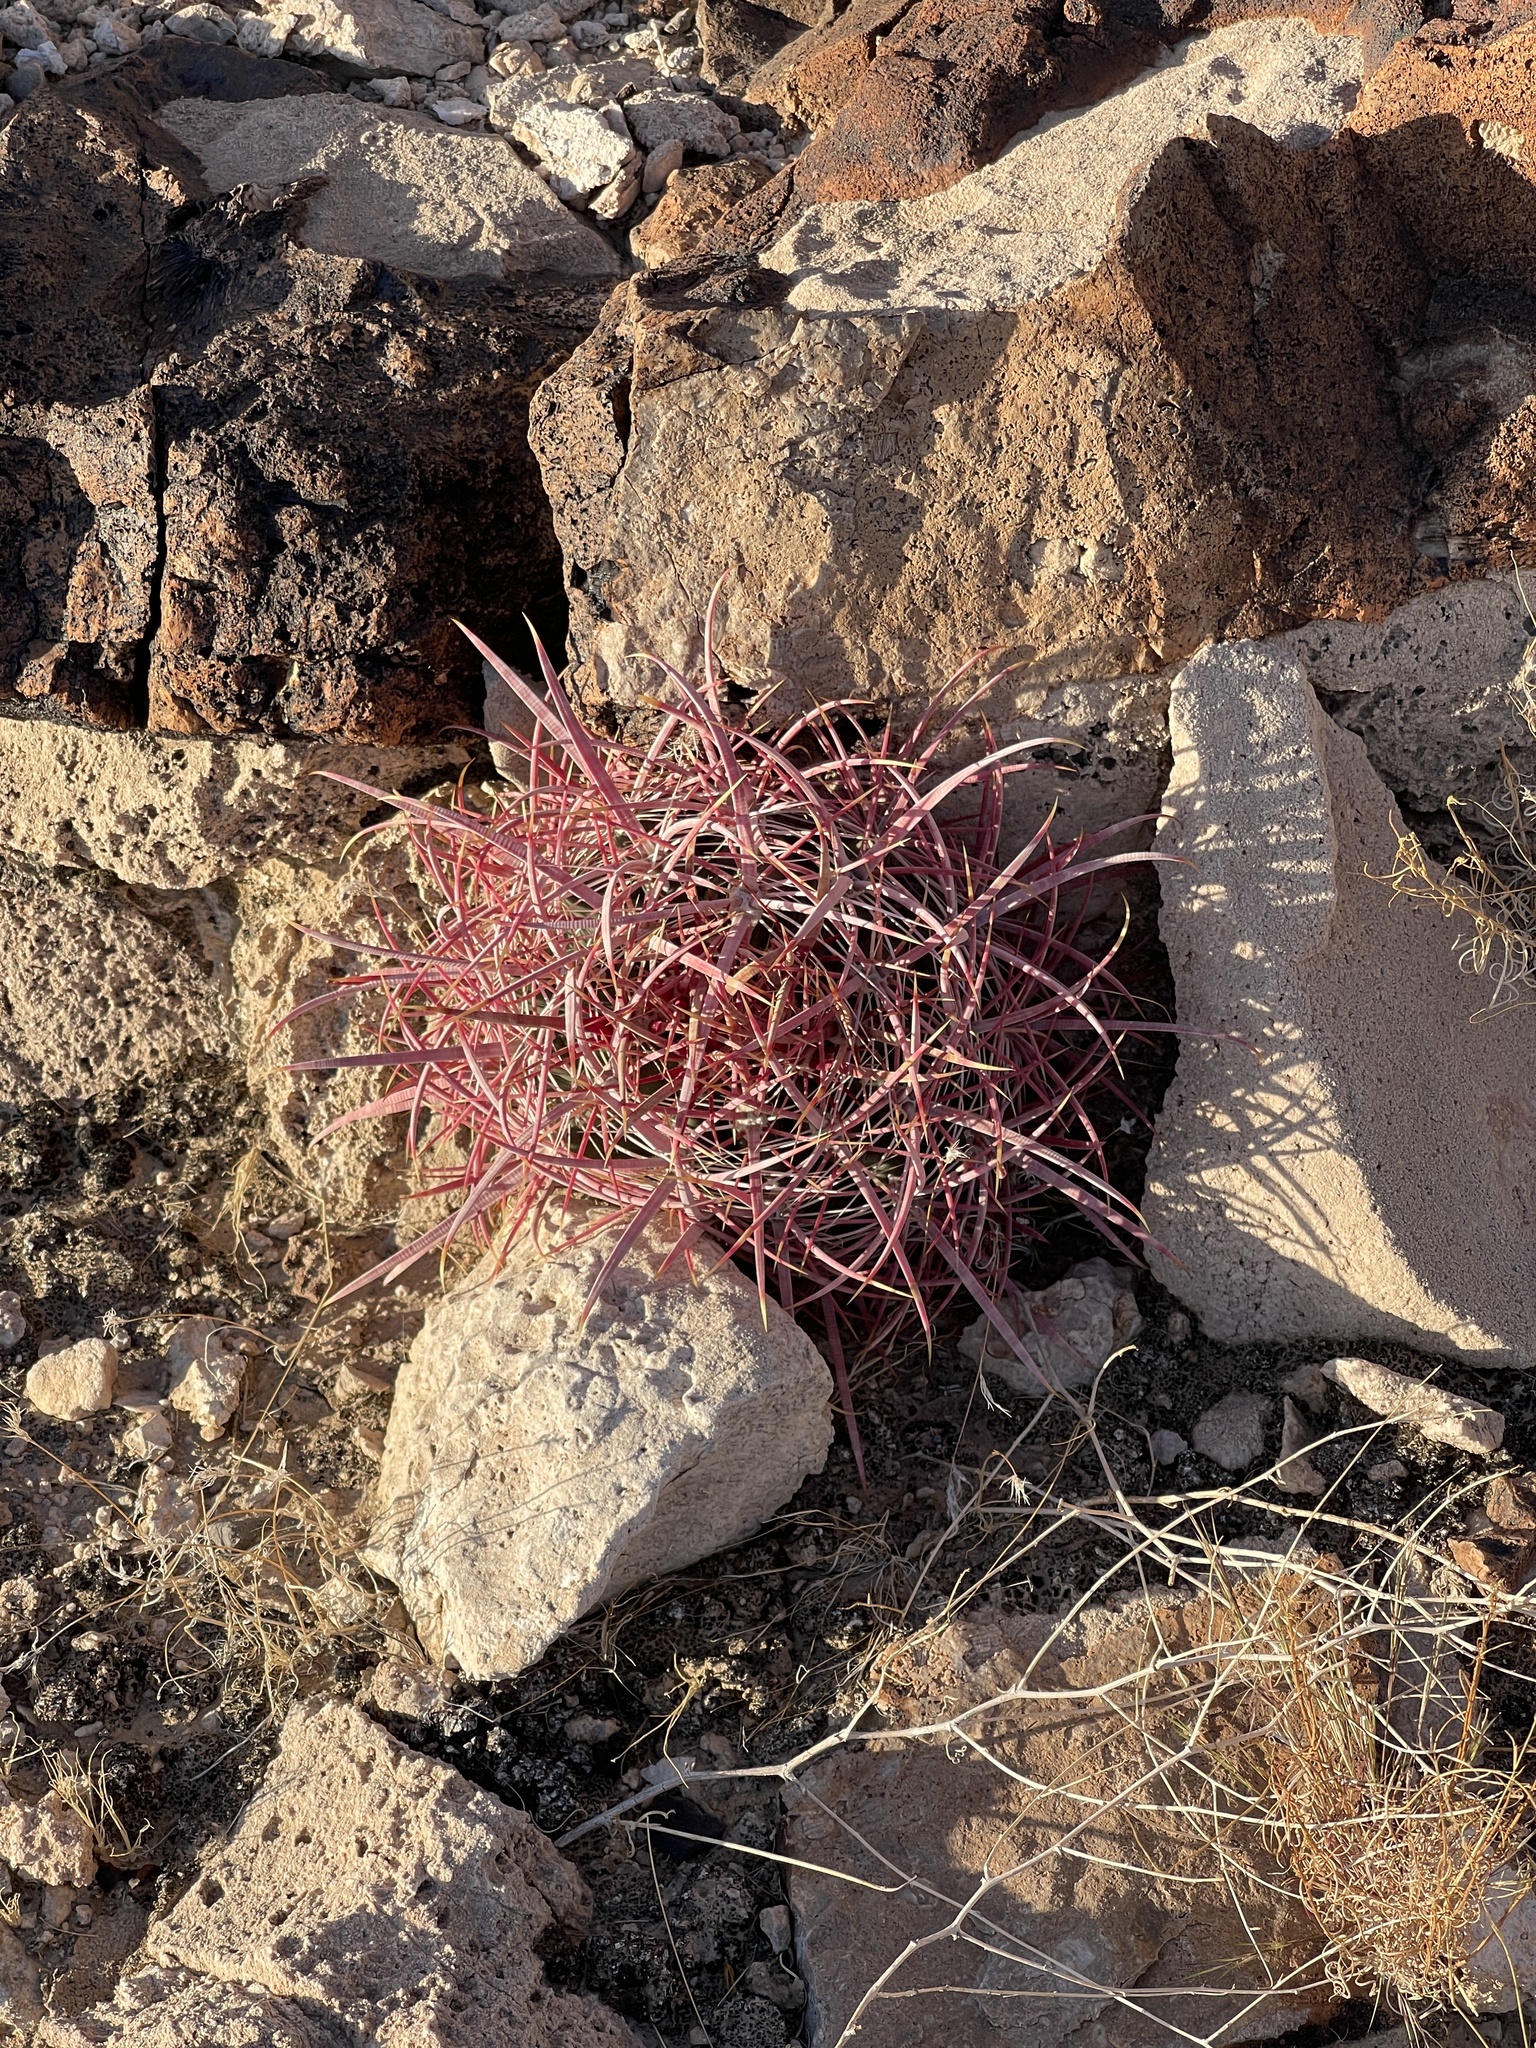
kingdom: Plantae
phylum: Tracheophyta
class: Magnoliopsida
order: Caryophyllales
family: Cactaceae
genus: Ferocactus
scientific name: Ferocactus cylindraceus
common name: California barrel cactus
